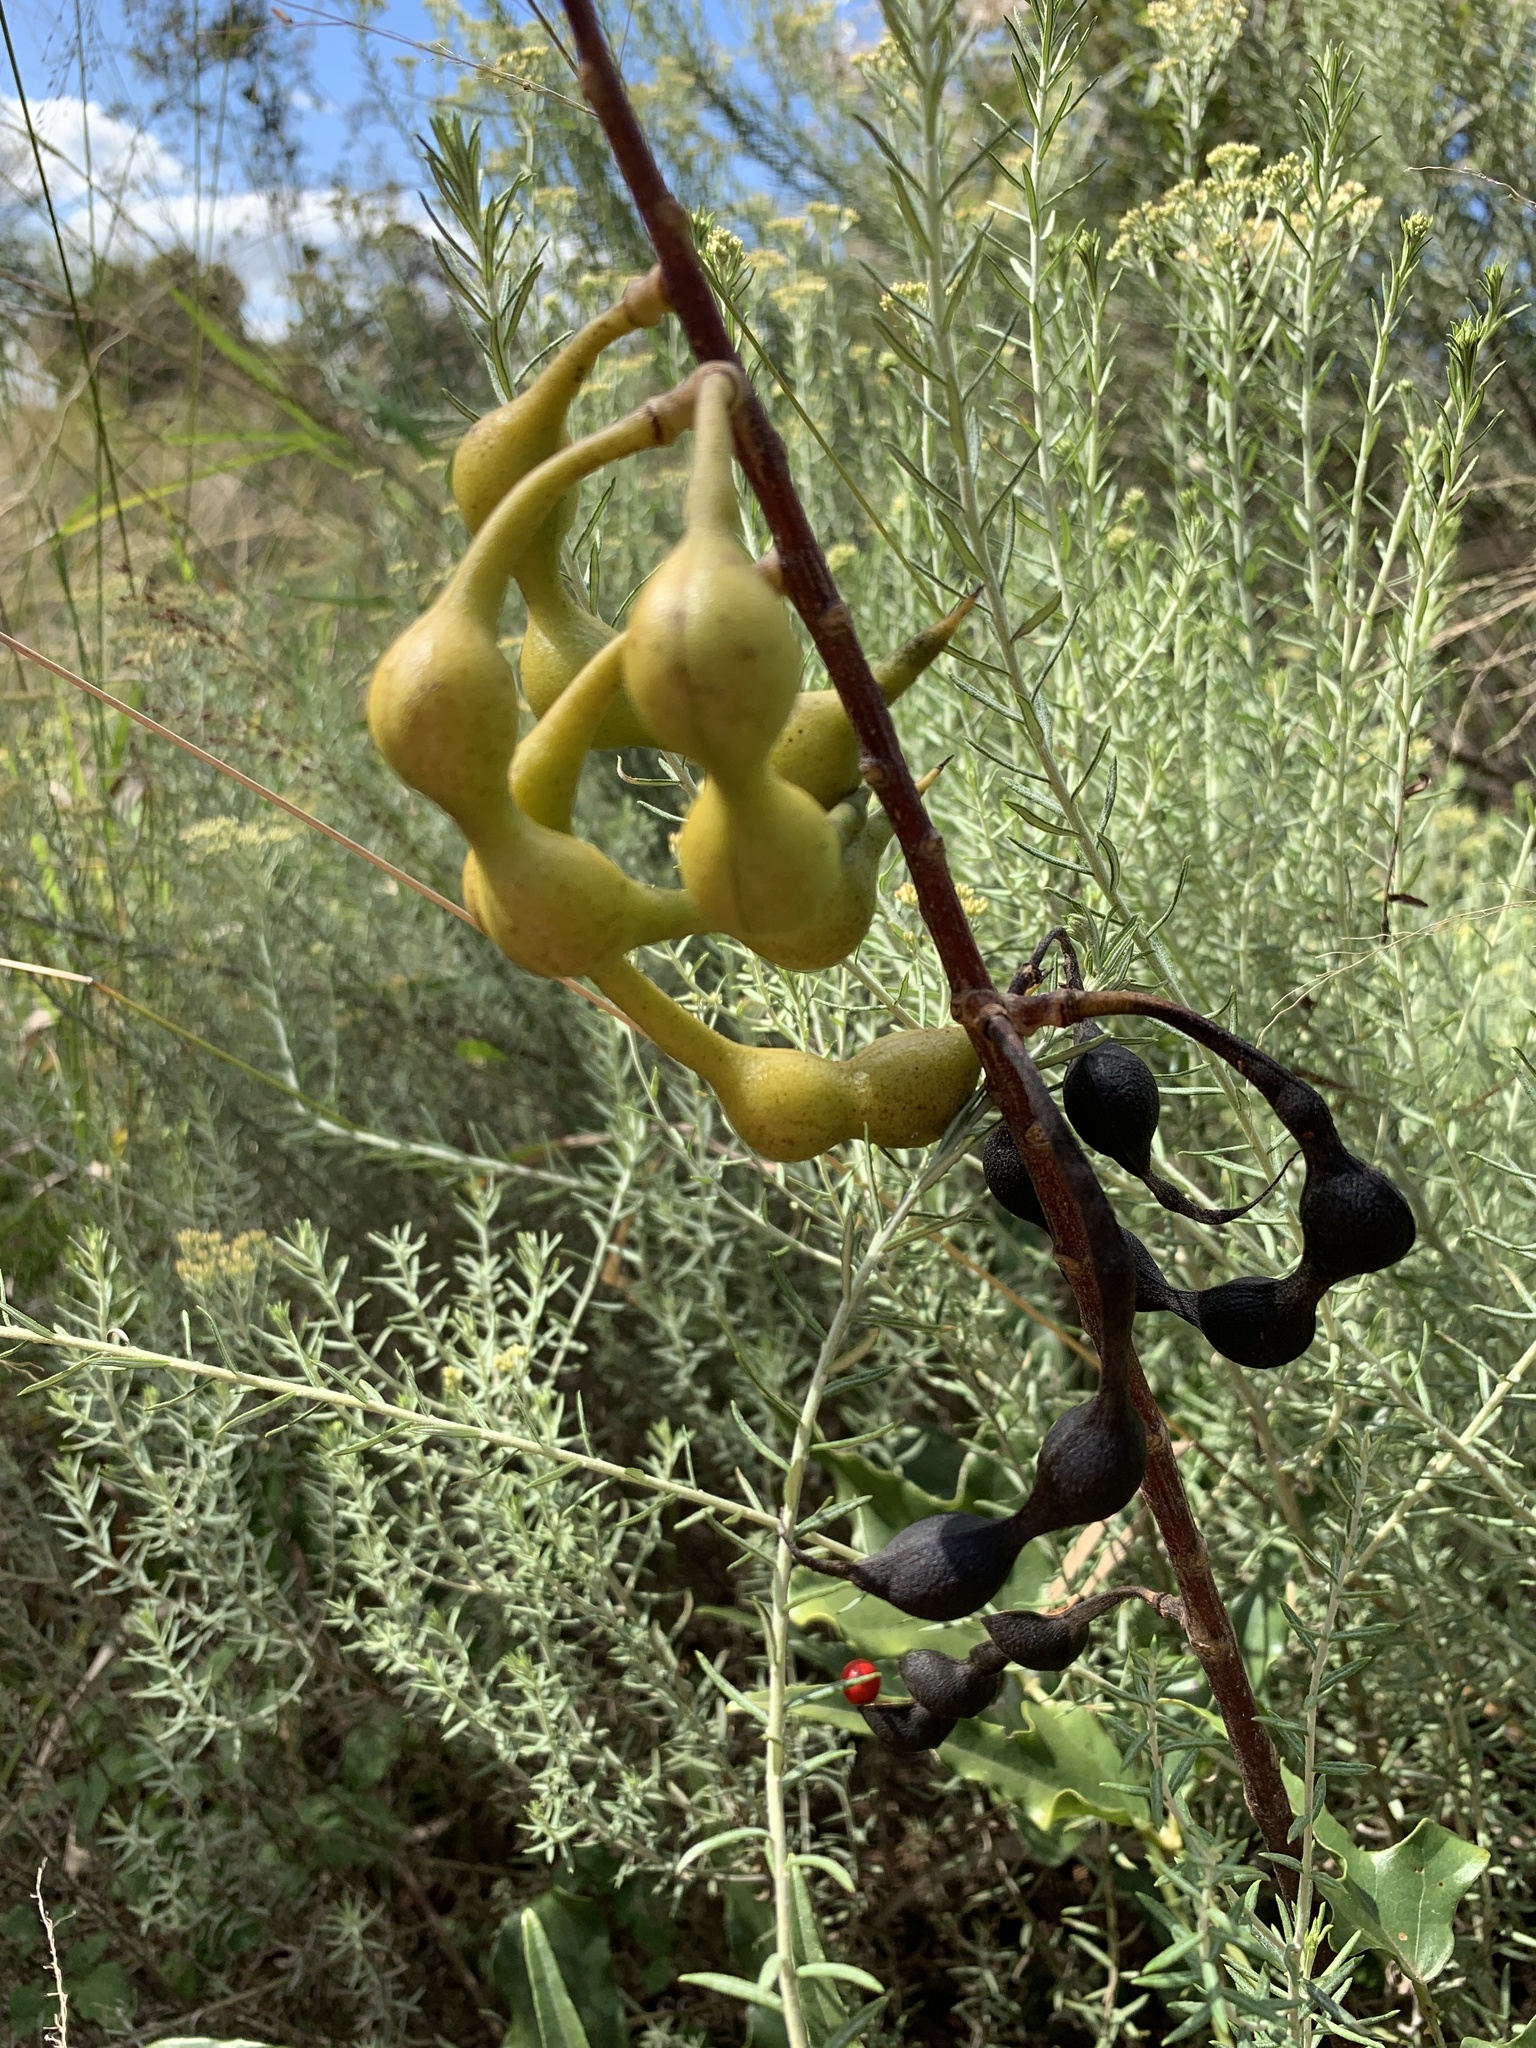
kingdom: Plantae
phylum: Tracheophyta
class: Magnoliopsida
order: Fabales
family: Fabaceae
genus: Erythrina
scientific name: Erythrina humeana
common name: Dwarf coral tree
